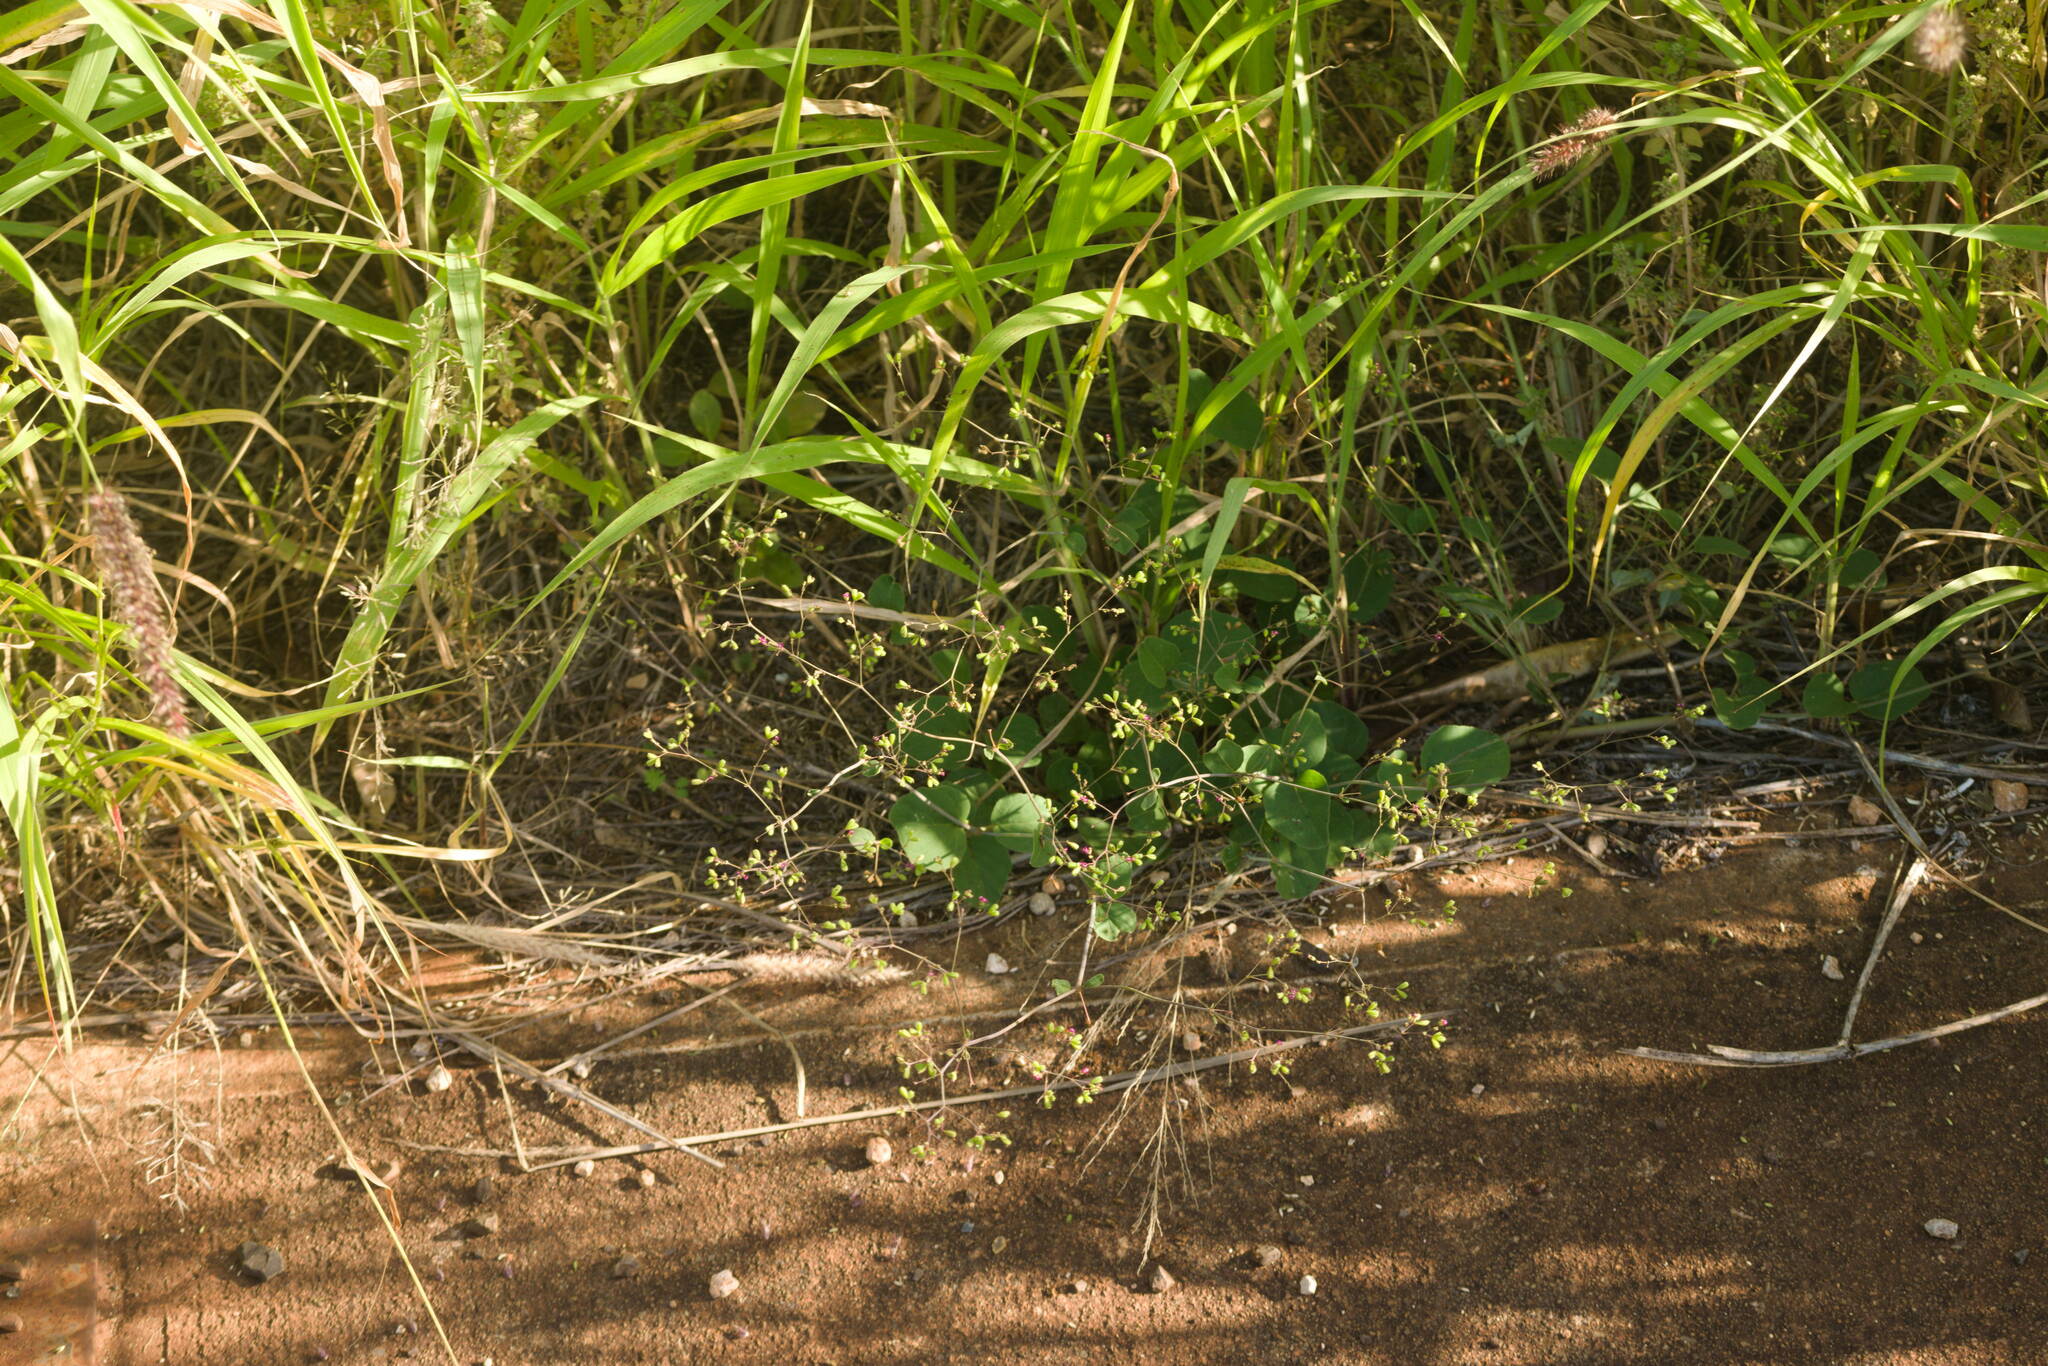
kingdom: Plantae
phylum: Tracheophyta
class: Magnoliopsida
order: Caryophyllales
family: Nyctaginaceae
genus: Boerhavia
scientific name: Boerhavia diffusa
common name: Red spiderling
